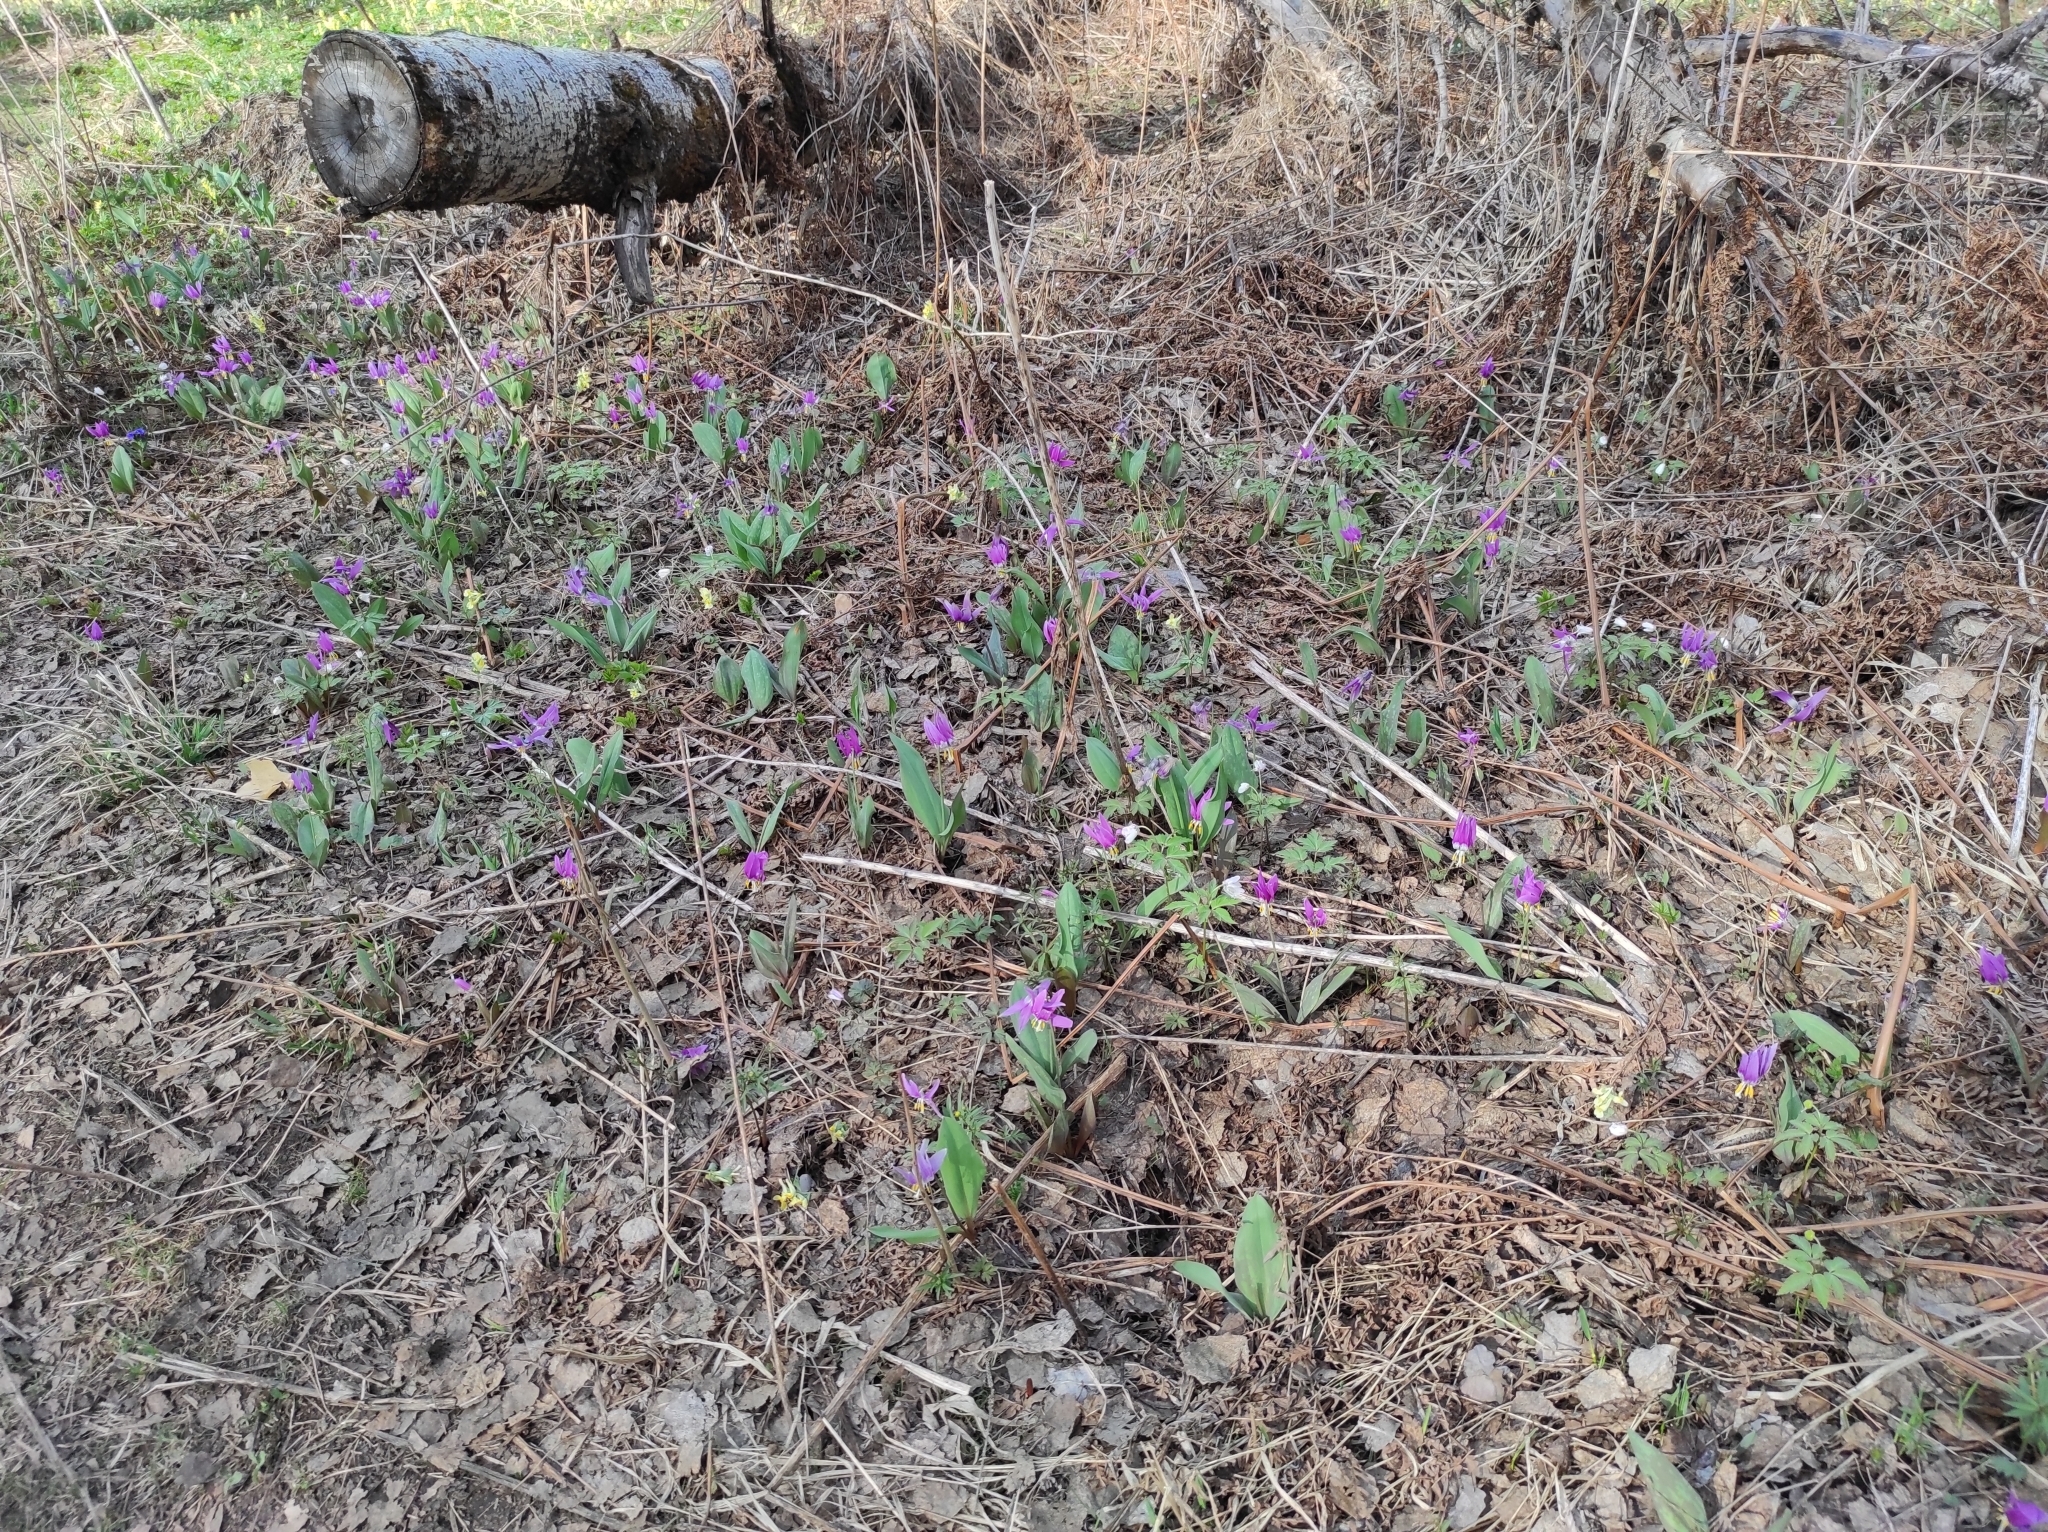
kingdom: Plantae
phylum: Tracheophyta
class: Liliopsida
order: Liliales
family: Liliaceae
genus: Erythronium
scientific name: Erythronium sibiricum
